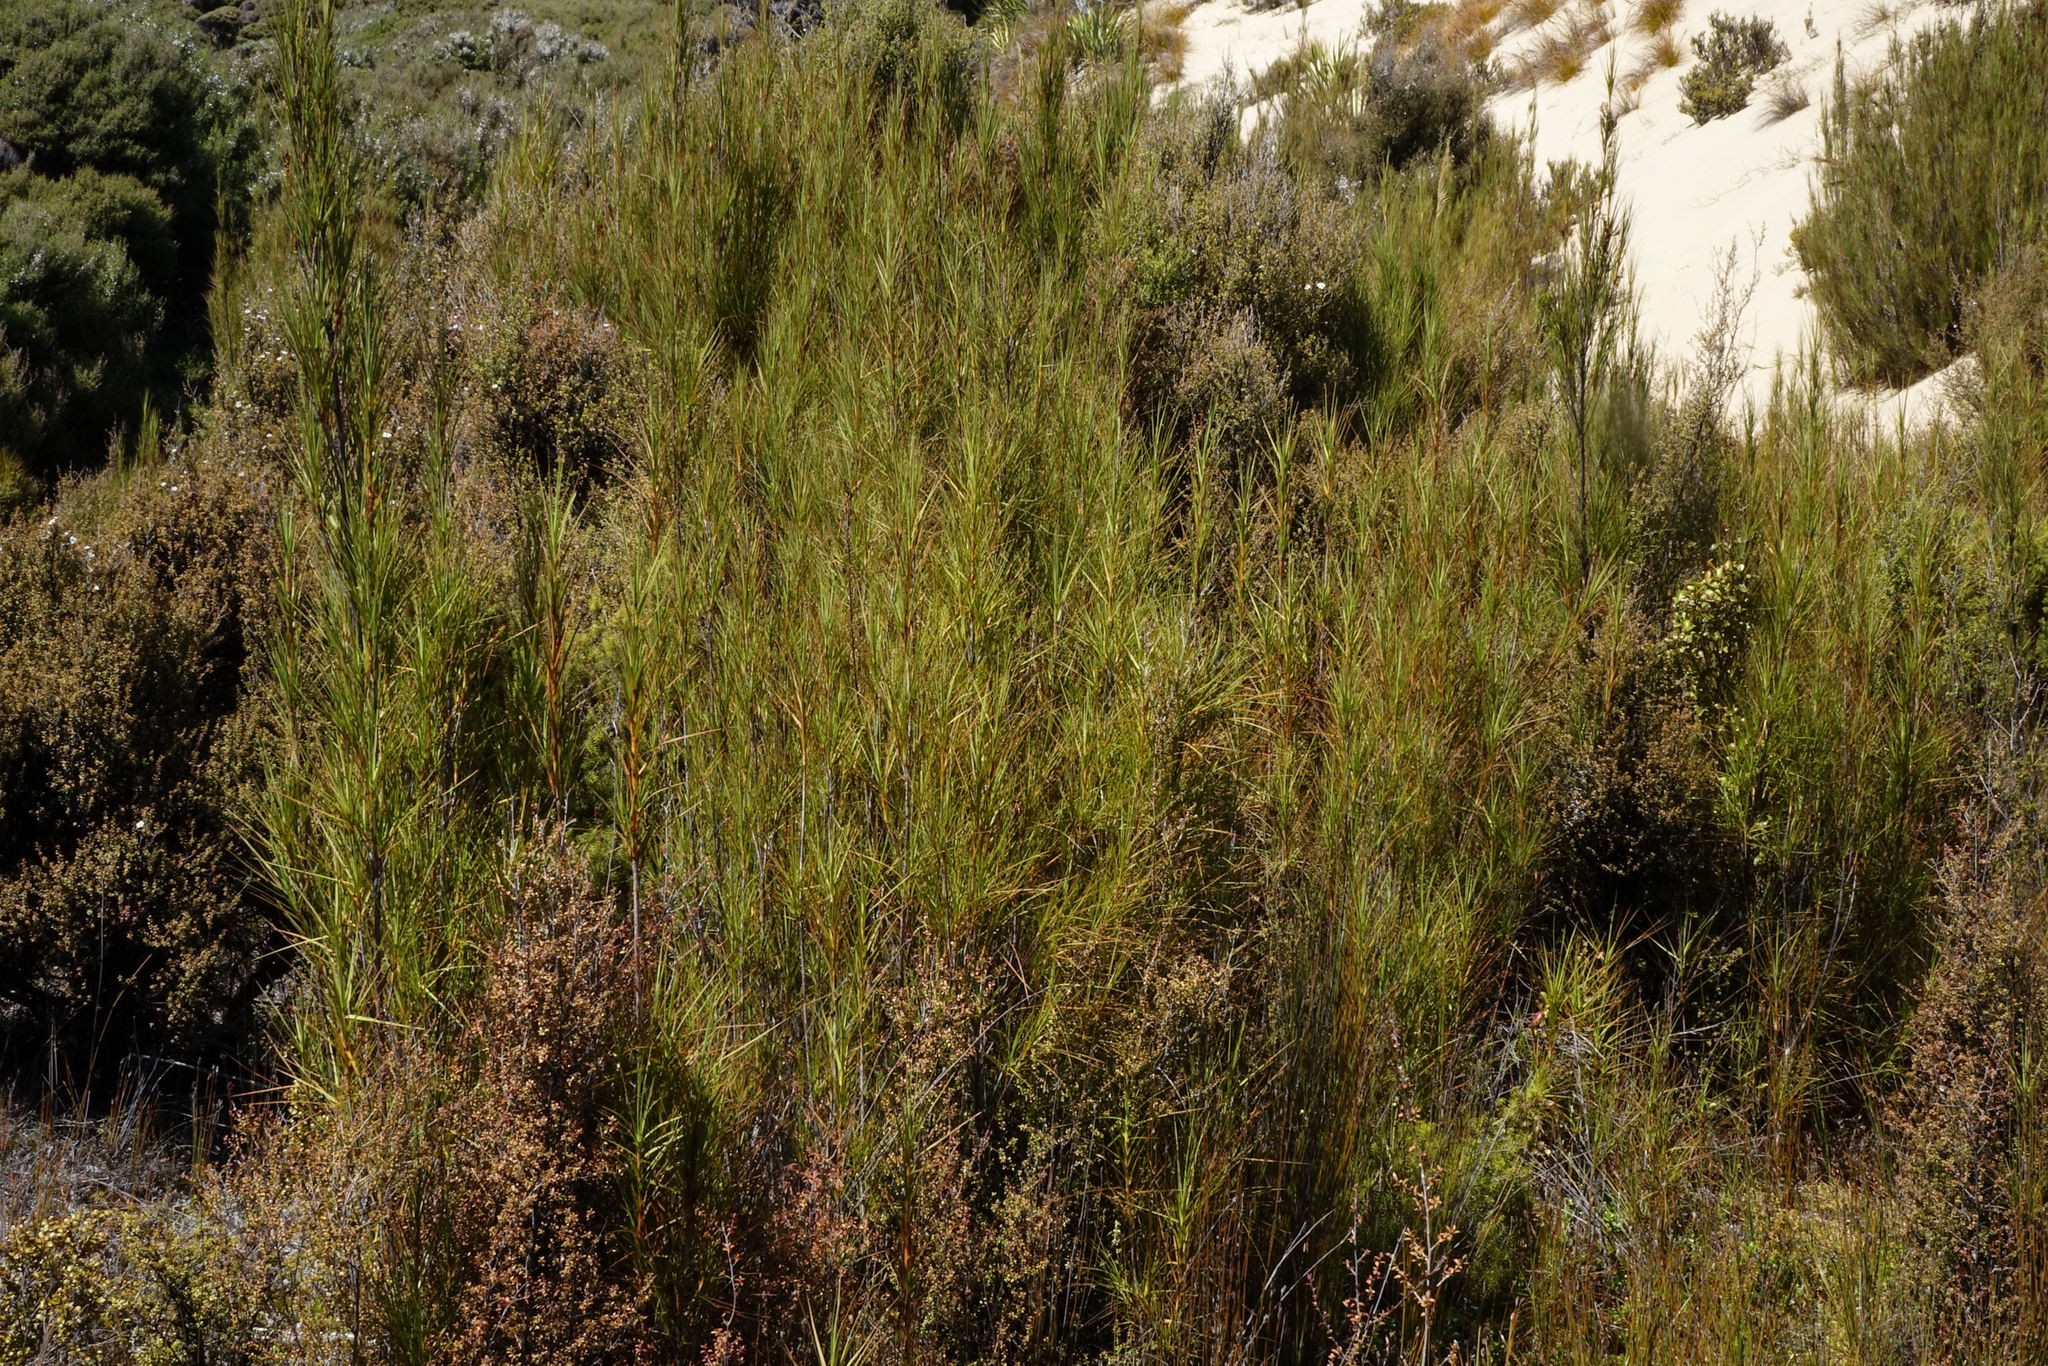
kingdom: Plantae
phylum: Tracheophyta
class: Magnoliopsida
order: Ericales
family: Ericaceae
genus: Dracophyllum
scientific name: Dracophyllum longifolium
